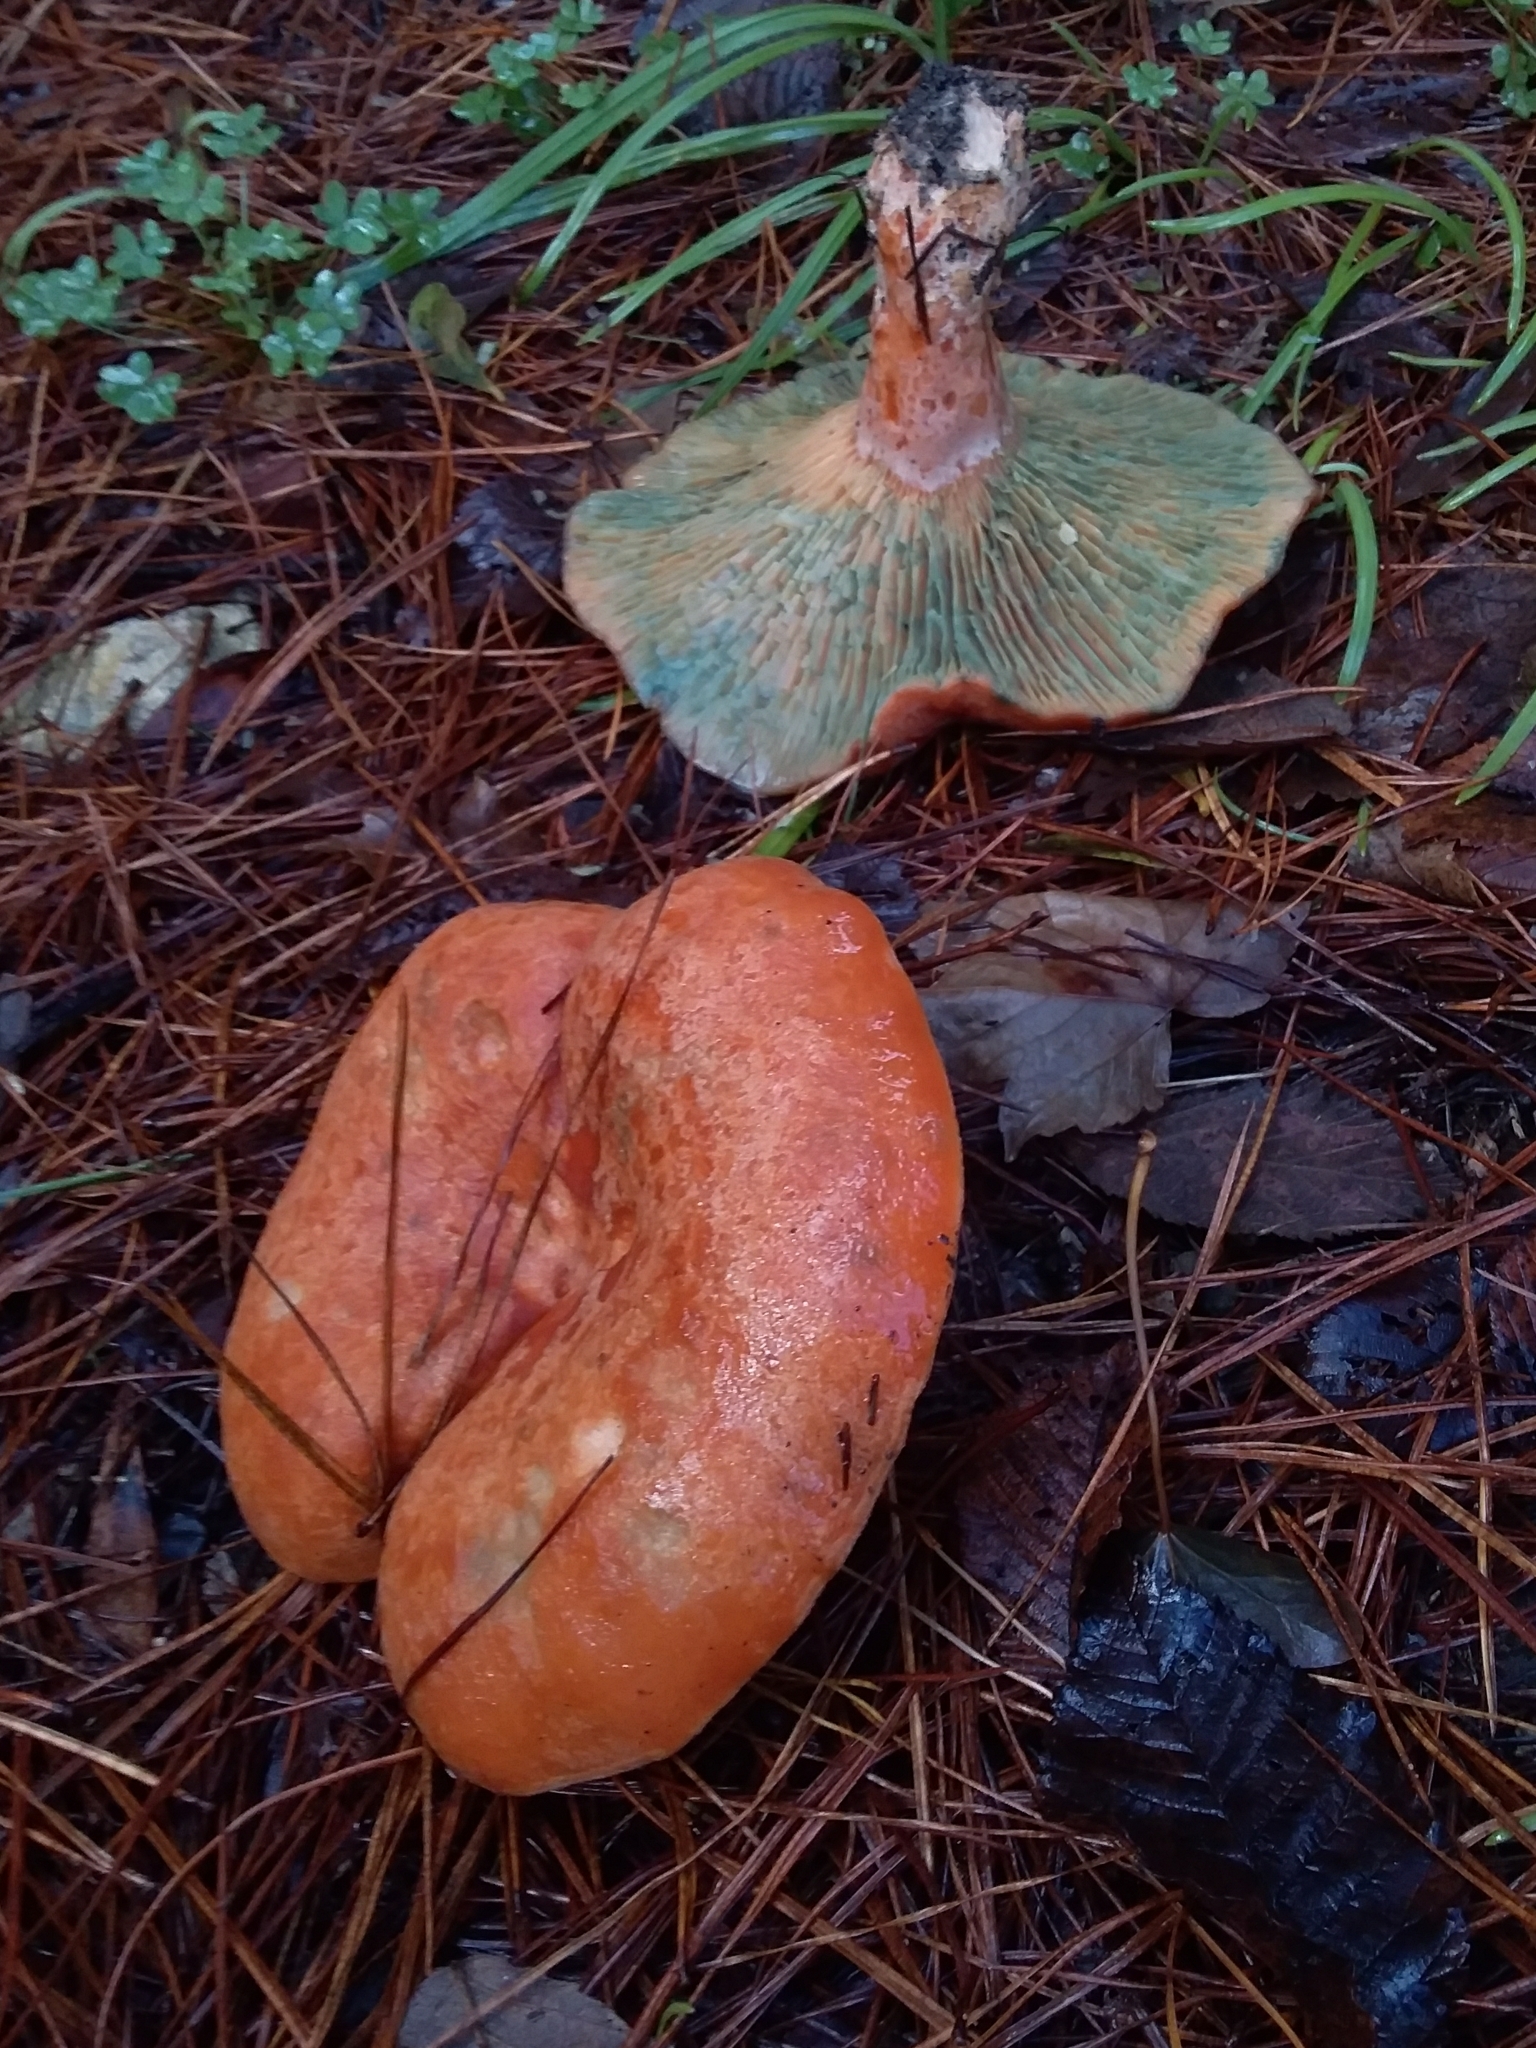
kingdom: Fungi
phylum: Basidiomycota
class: Agaricomycetes
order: Russulales
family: Russulaceae
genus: Lactarius
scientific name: Lactarius deliciosus
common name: Saffron milk-cap
